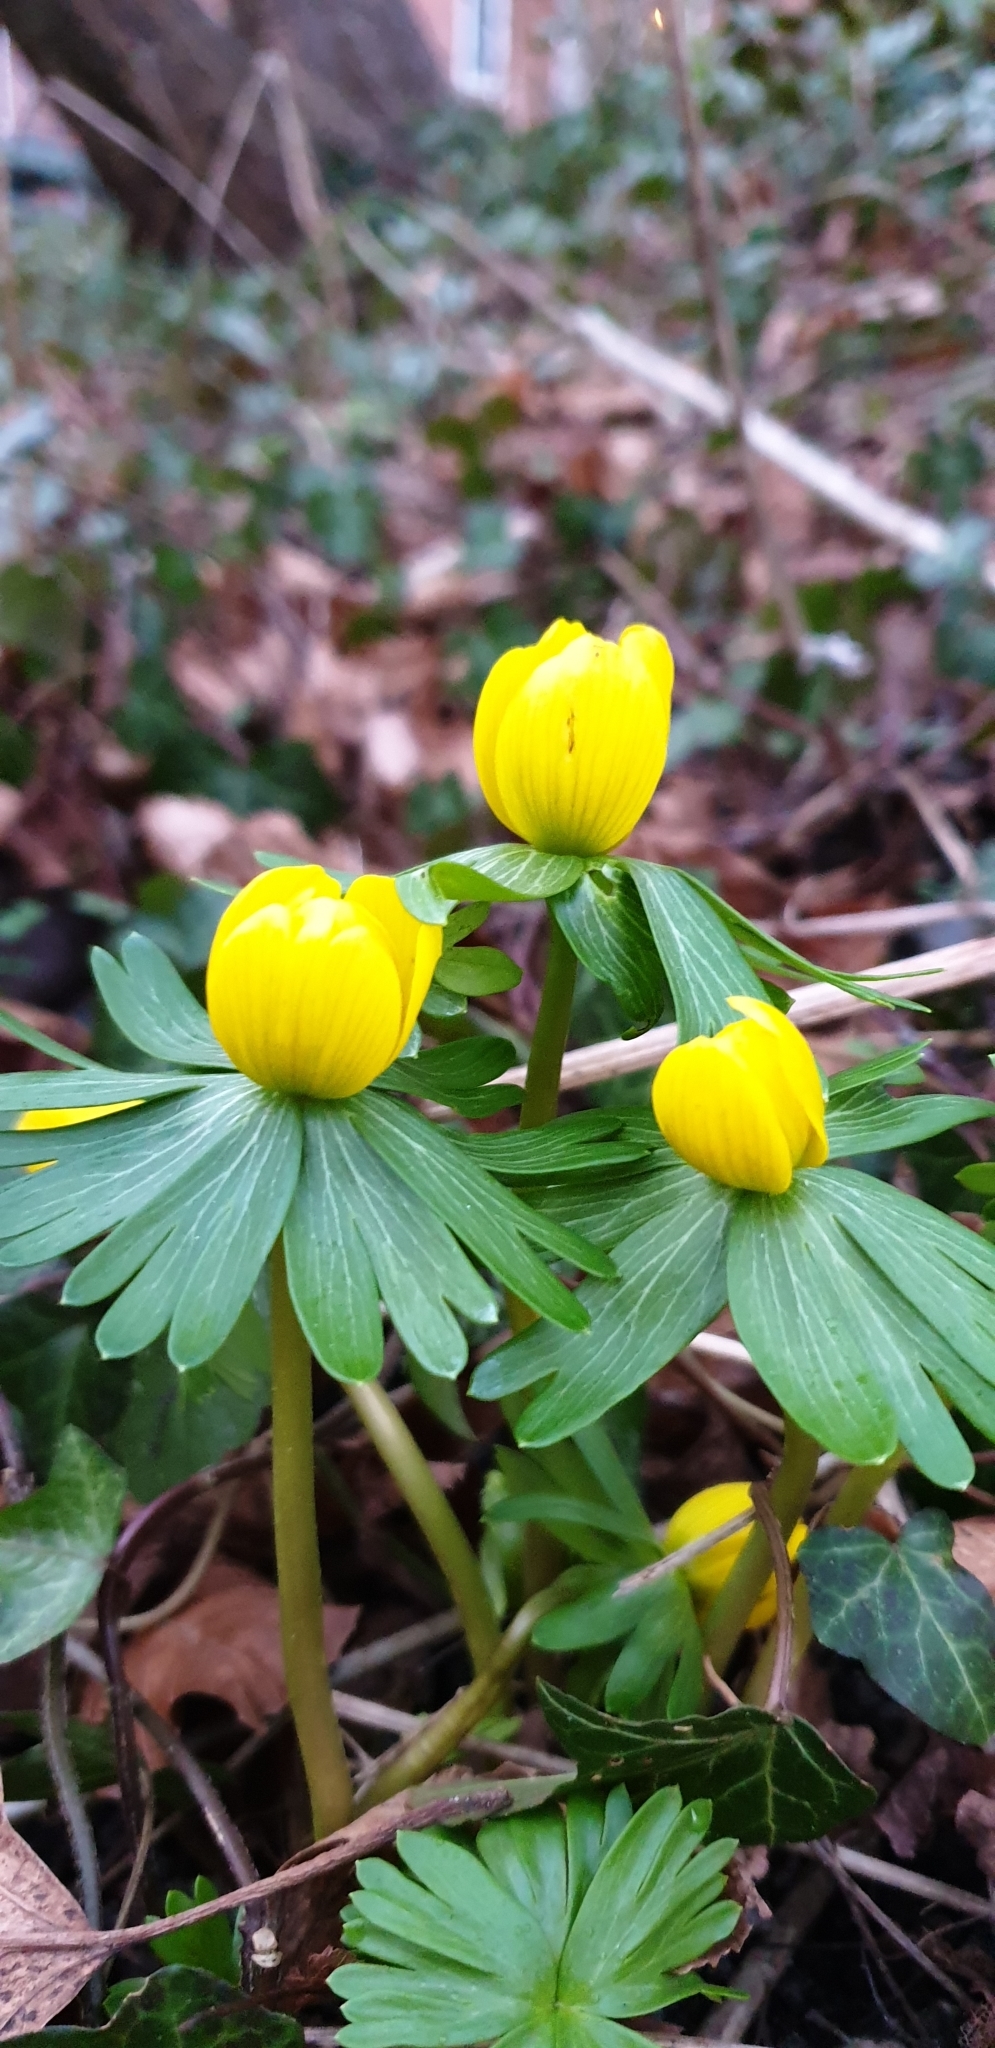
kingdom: Plantae
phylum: Tracheophyta
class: Magnoliopsida
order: Ranunculales
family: Ranunculaceae
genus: Eranthis
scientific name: Eranthis hyemalis
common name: Winter aconite
